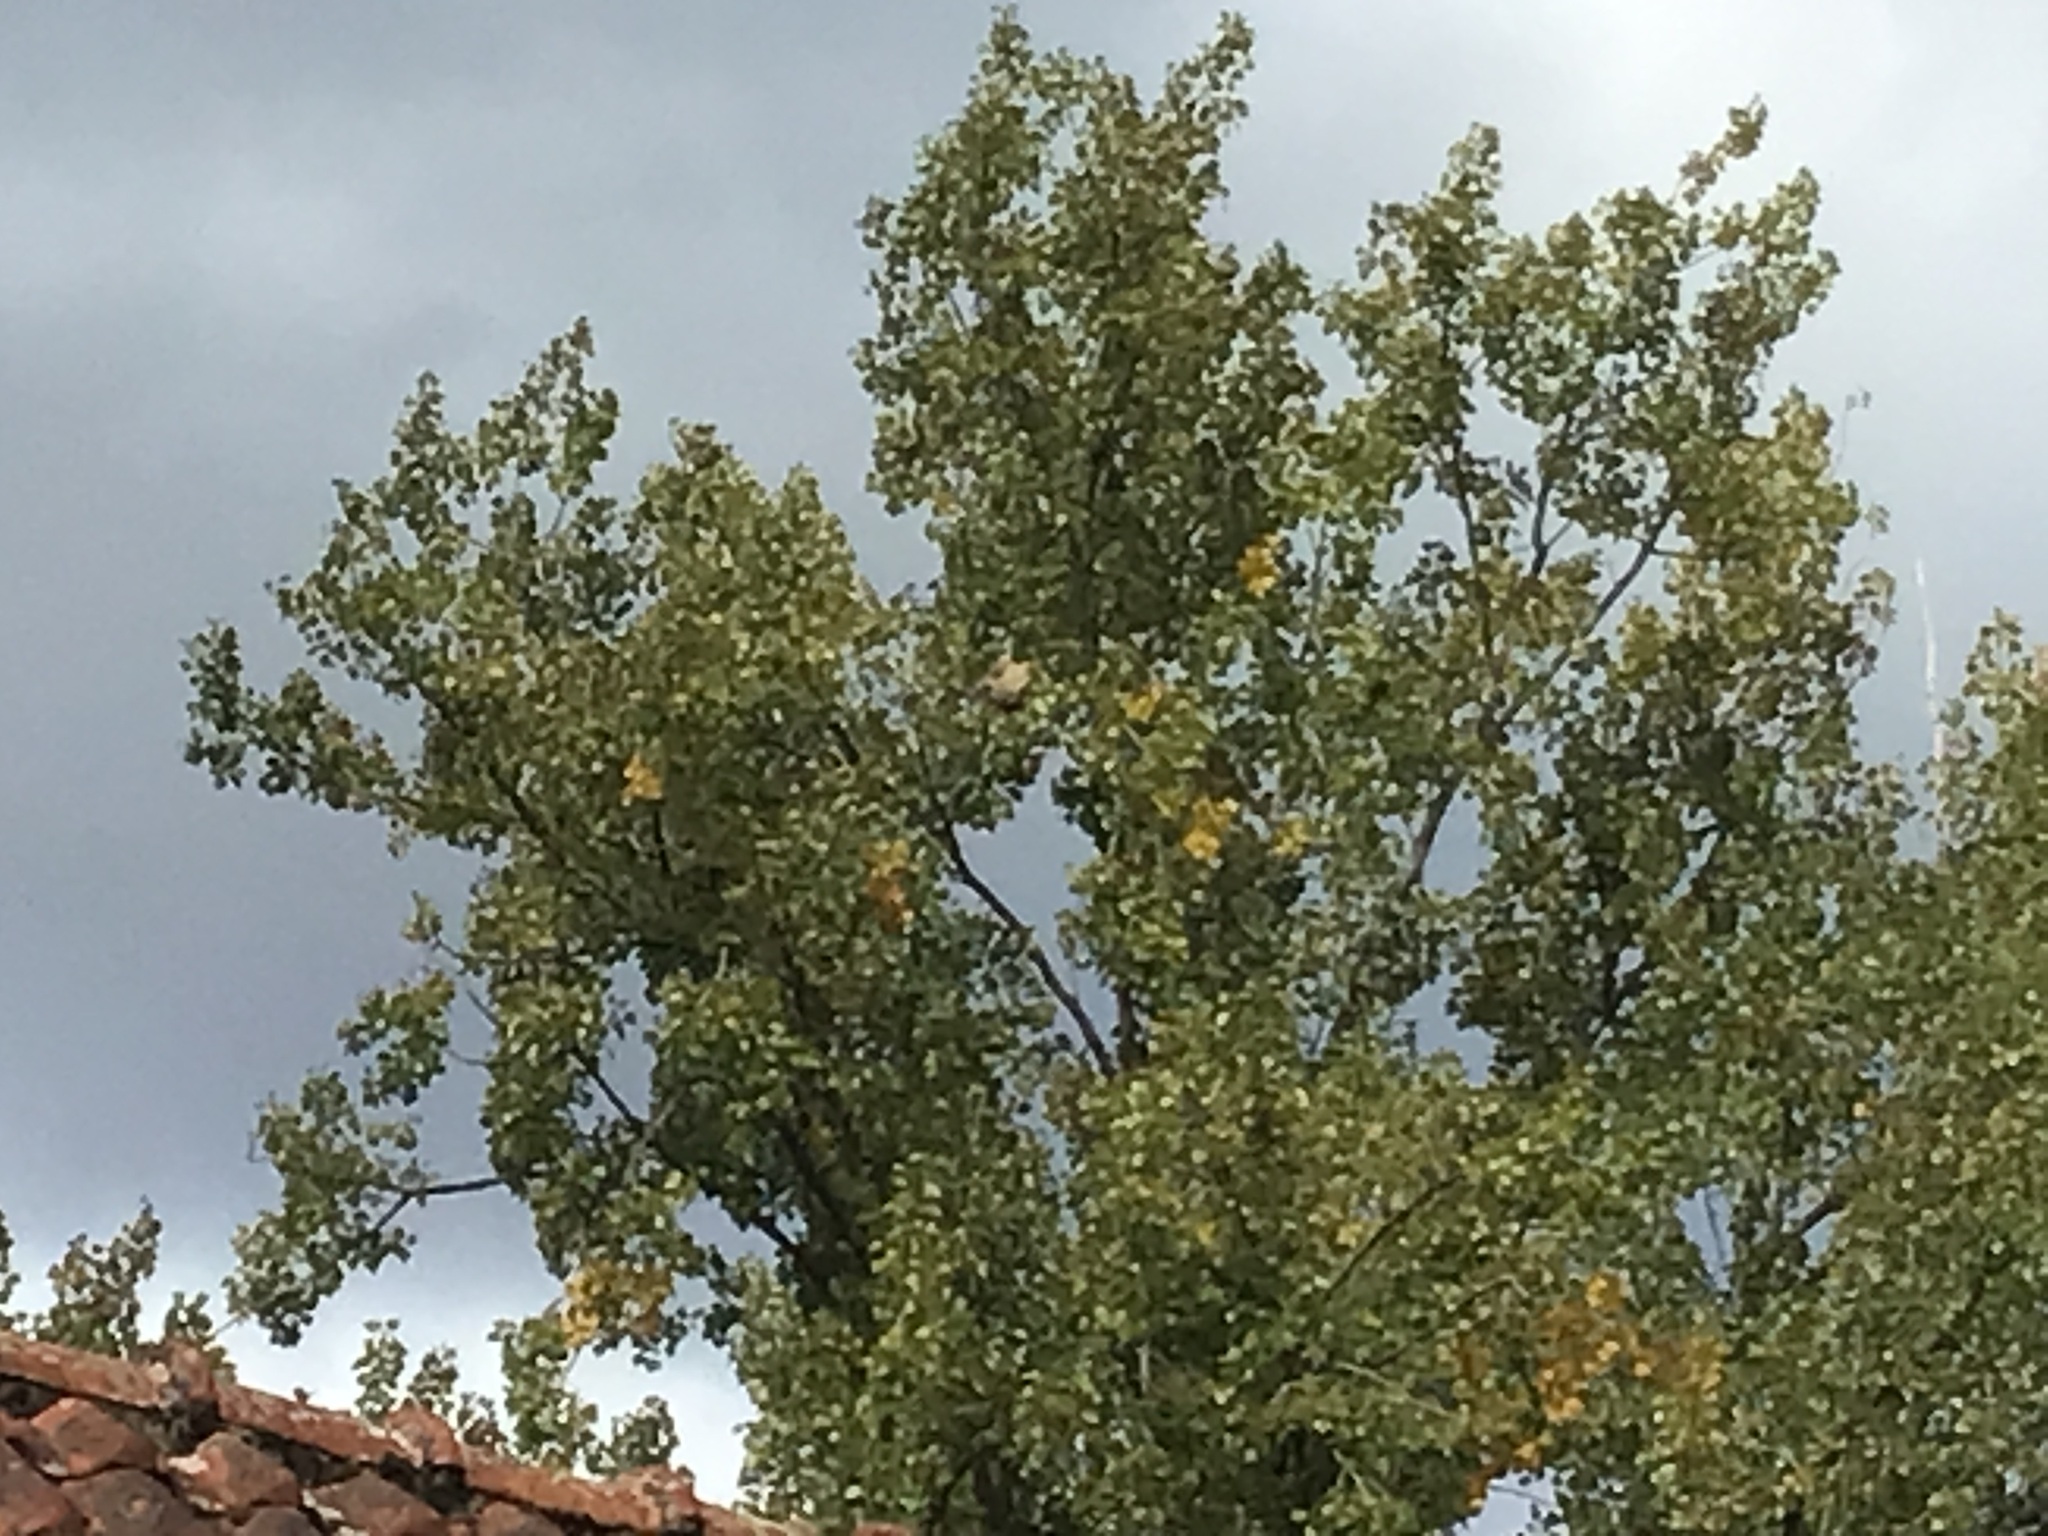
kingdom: Animalia
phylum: Arthropoda
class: Insecta
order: Hymenoptera
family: Vespidae
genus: Vespa
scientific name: Vespa velutina
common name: Asian hornet
